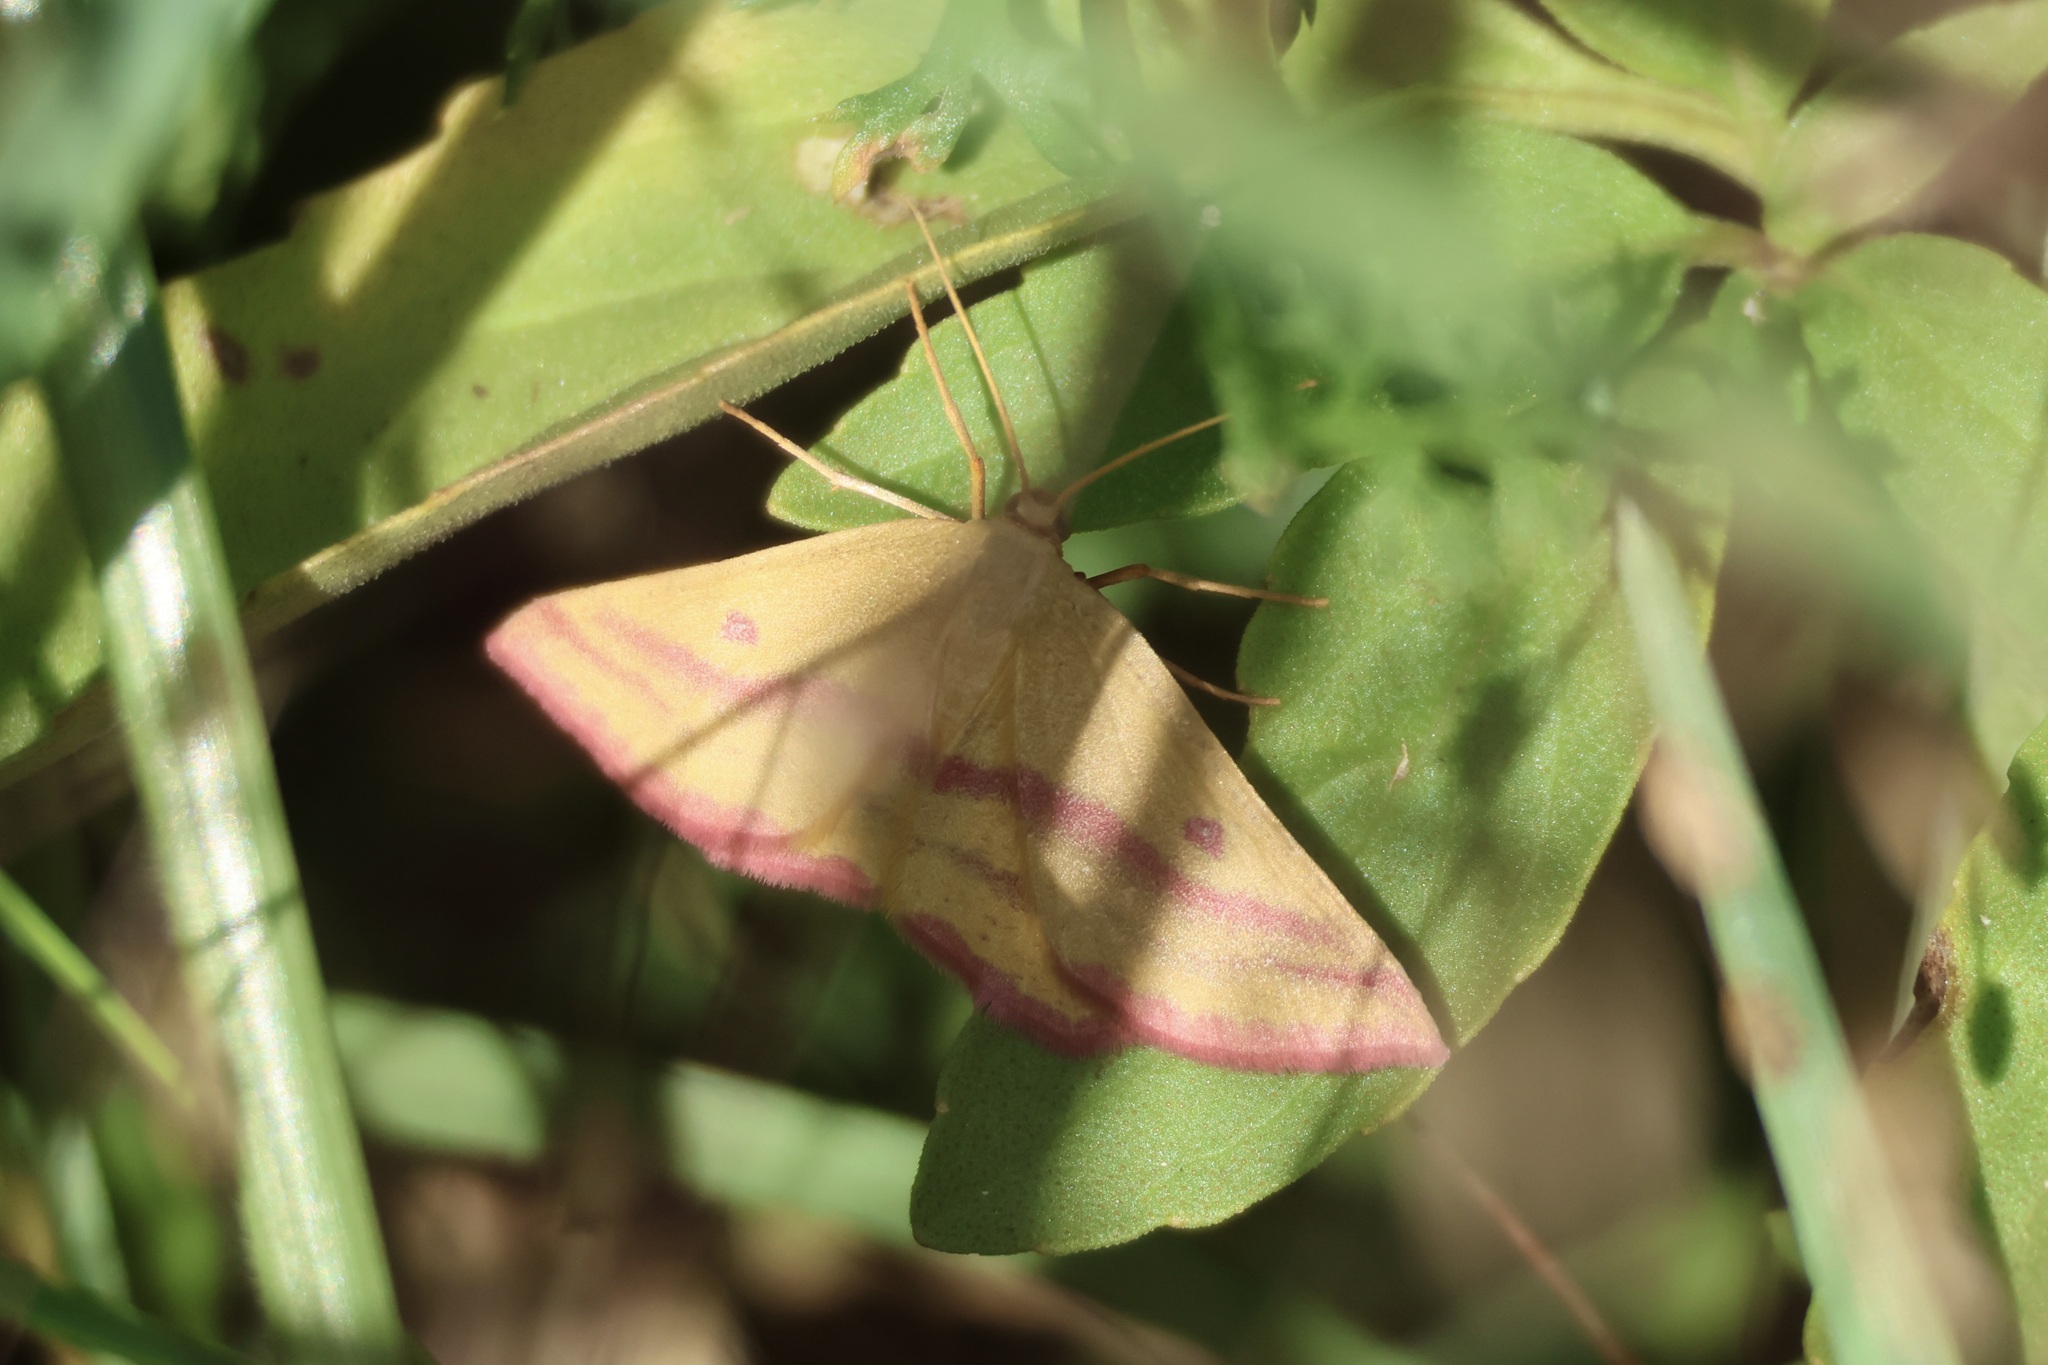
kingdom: Animalia
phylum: Arthropoda
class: Insecta
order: Lepidoptera
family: Geometridae
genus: Haematopis
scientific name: Haematopis grataria
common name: Chickweed geometer
